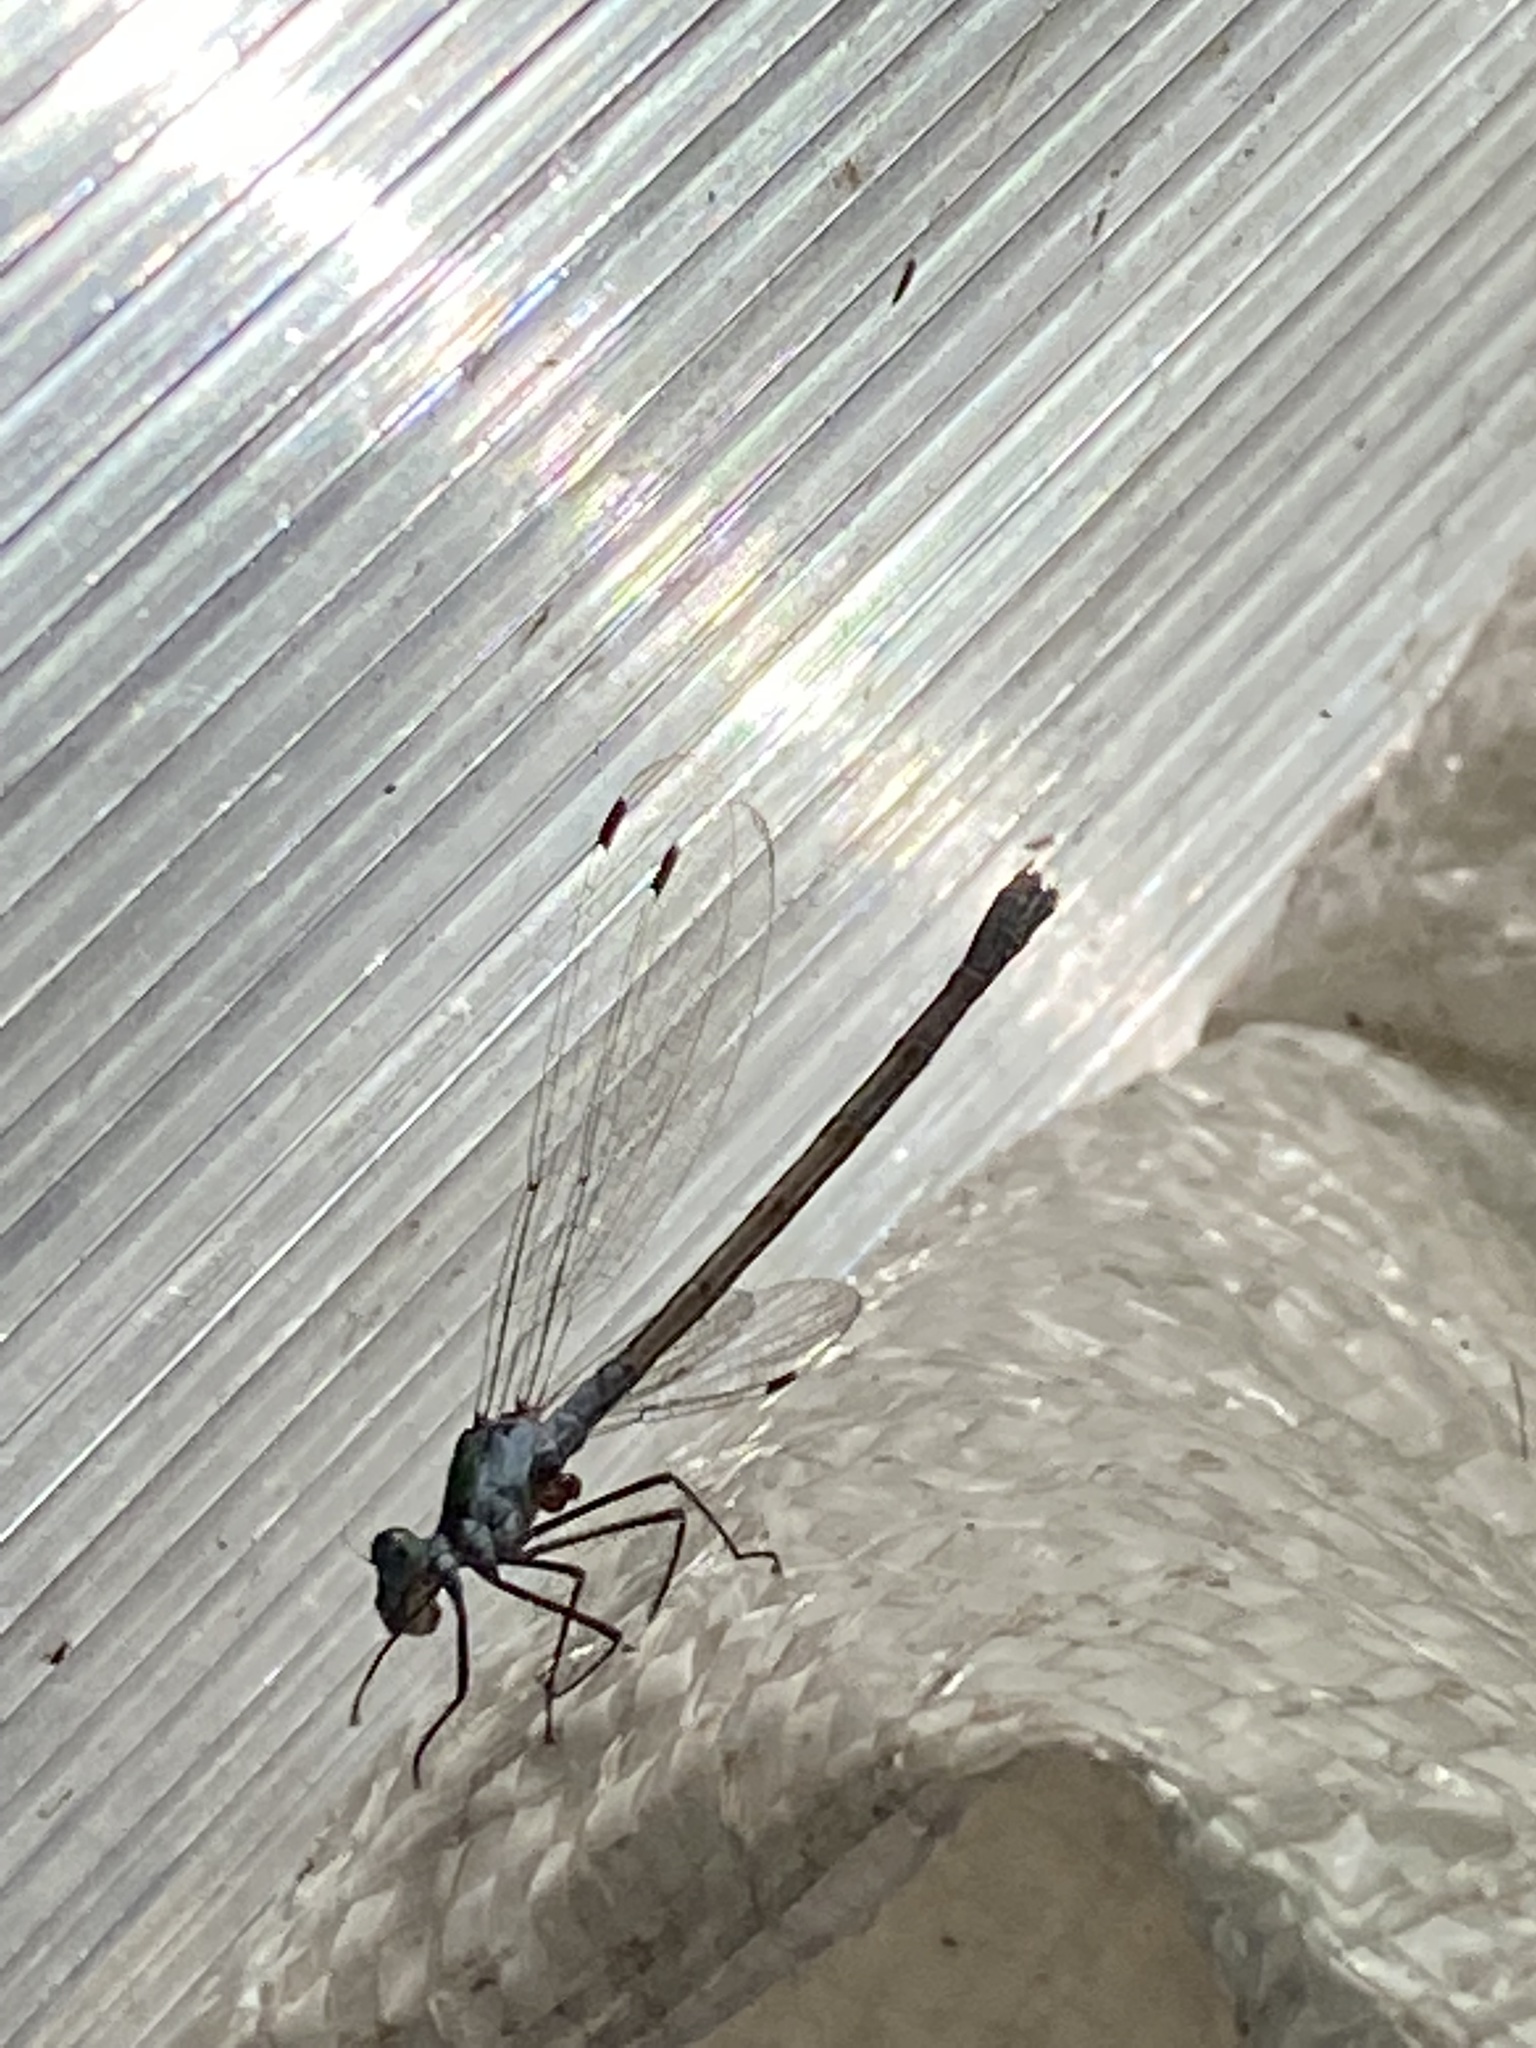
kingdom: Animalia
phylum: Arthropoda
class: Insecta
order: Odonata
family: Lestidae
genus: Lestes
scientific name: Lestes sponsa
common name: Common spreadwing
